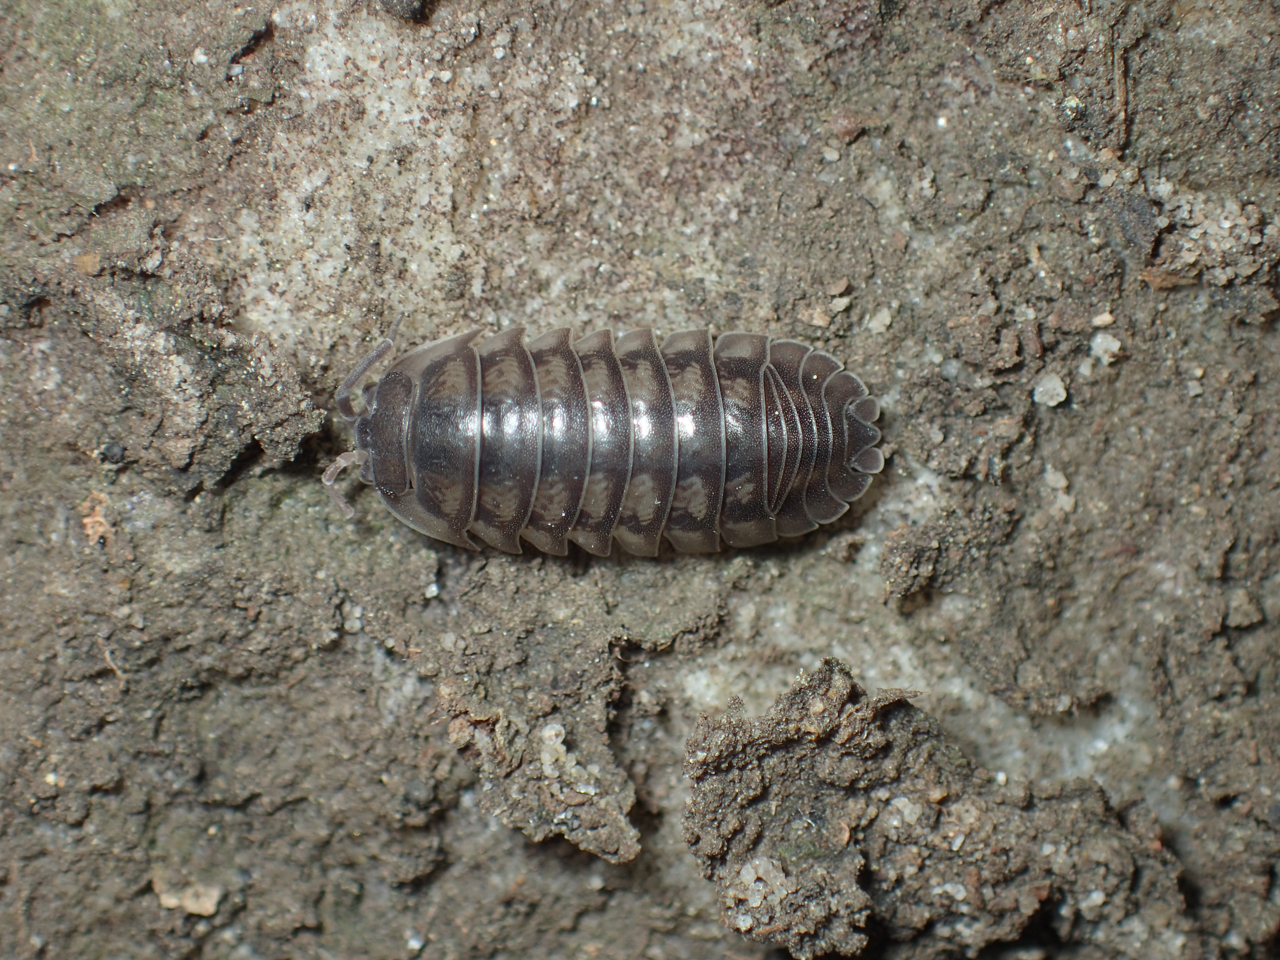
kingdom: Animalia
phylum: Arthropoda
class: Malacostraca
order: Isopoda
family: Armadillidiidae
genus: Armadillidium
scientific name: Armadillidium nasatum
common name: Isopod
